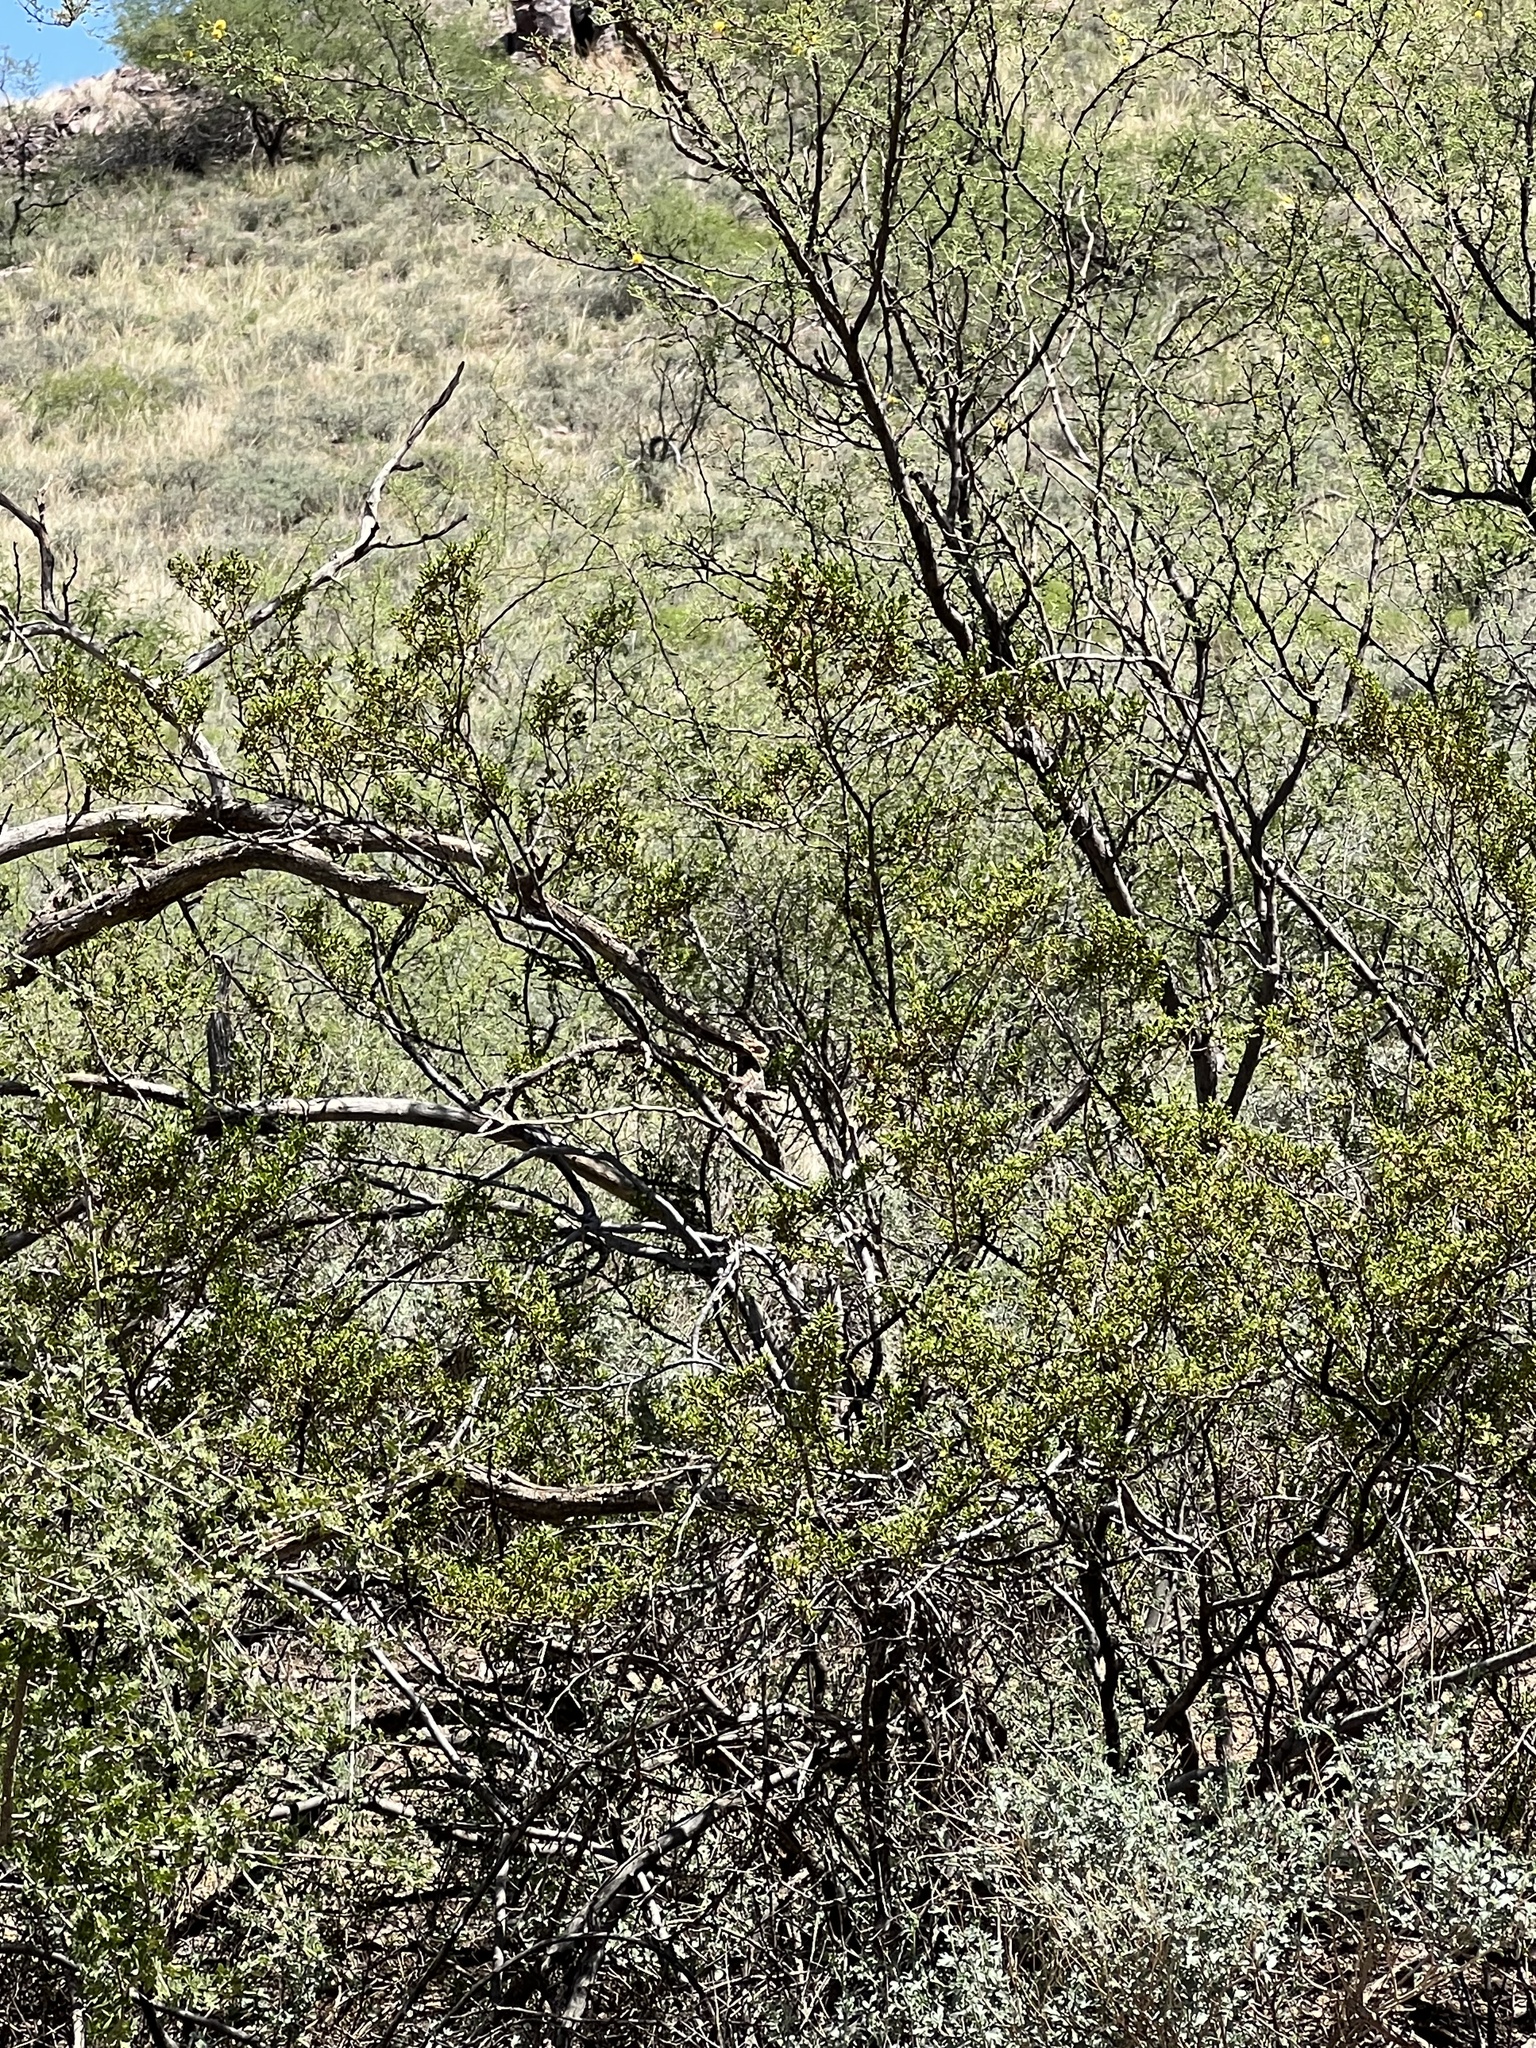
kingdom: Plantae
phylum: Tracheophyta
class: Magnoliopsida
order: Zygophyllales
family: Zygophyllaceae
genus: Larrea
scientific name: Larrea tridentata
